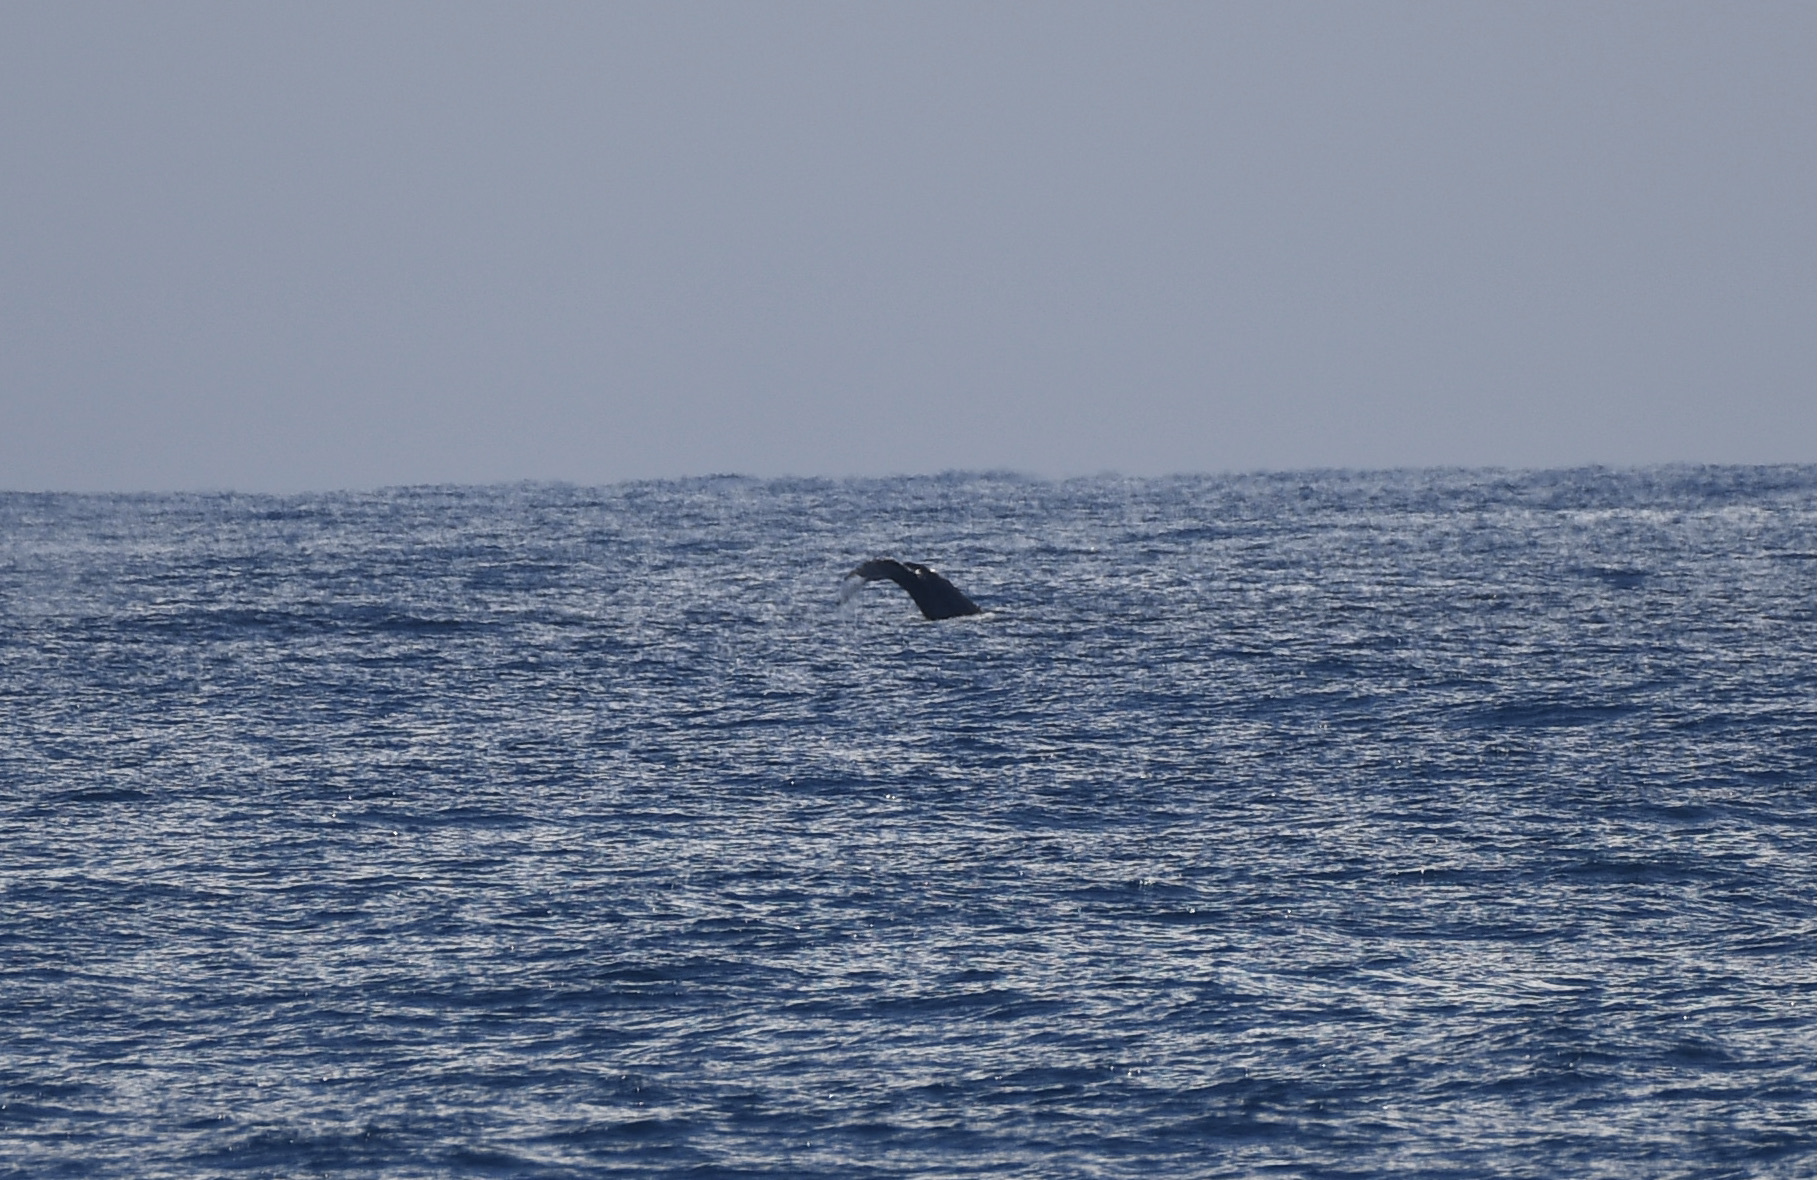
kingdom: Animalia
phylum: Chordata
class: Mammalia
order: Cetacea
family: Balaenopteridae
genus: Megaptera
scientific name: Megaptera novaeangliae
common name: Humpback whale
